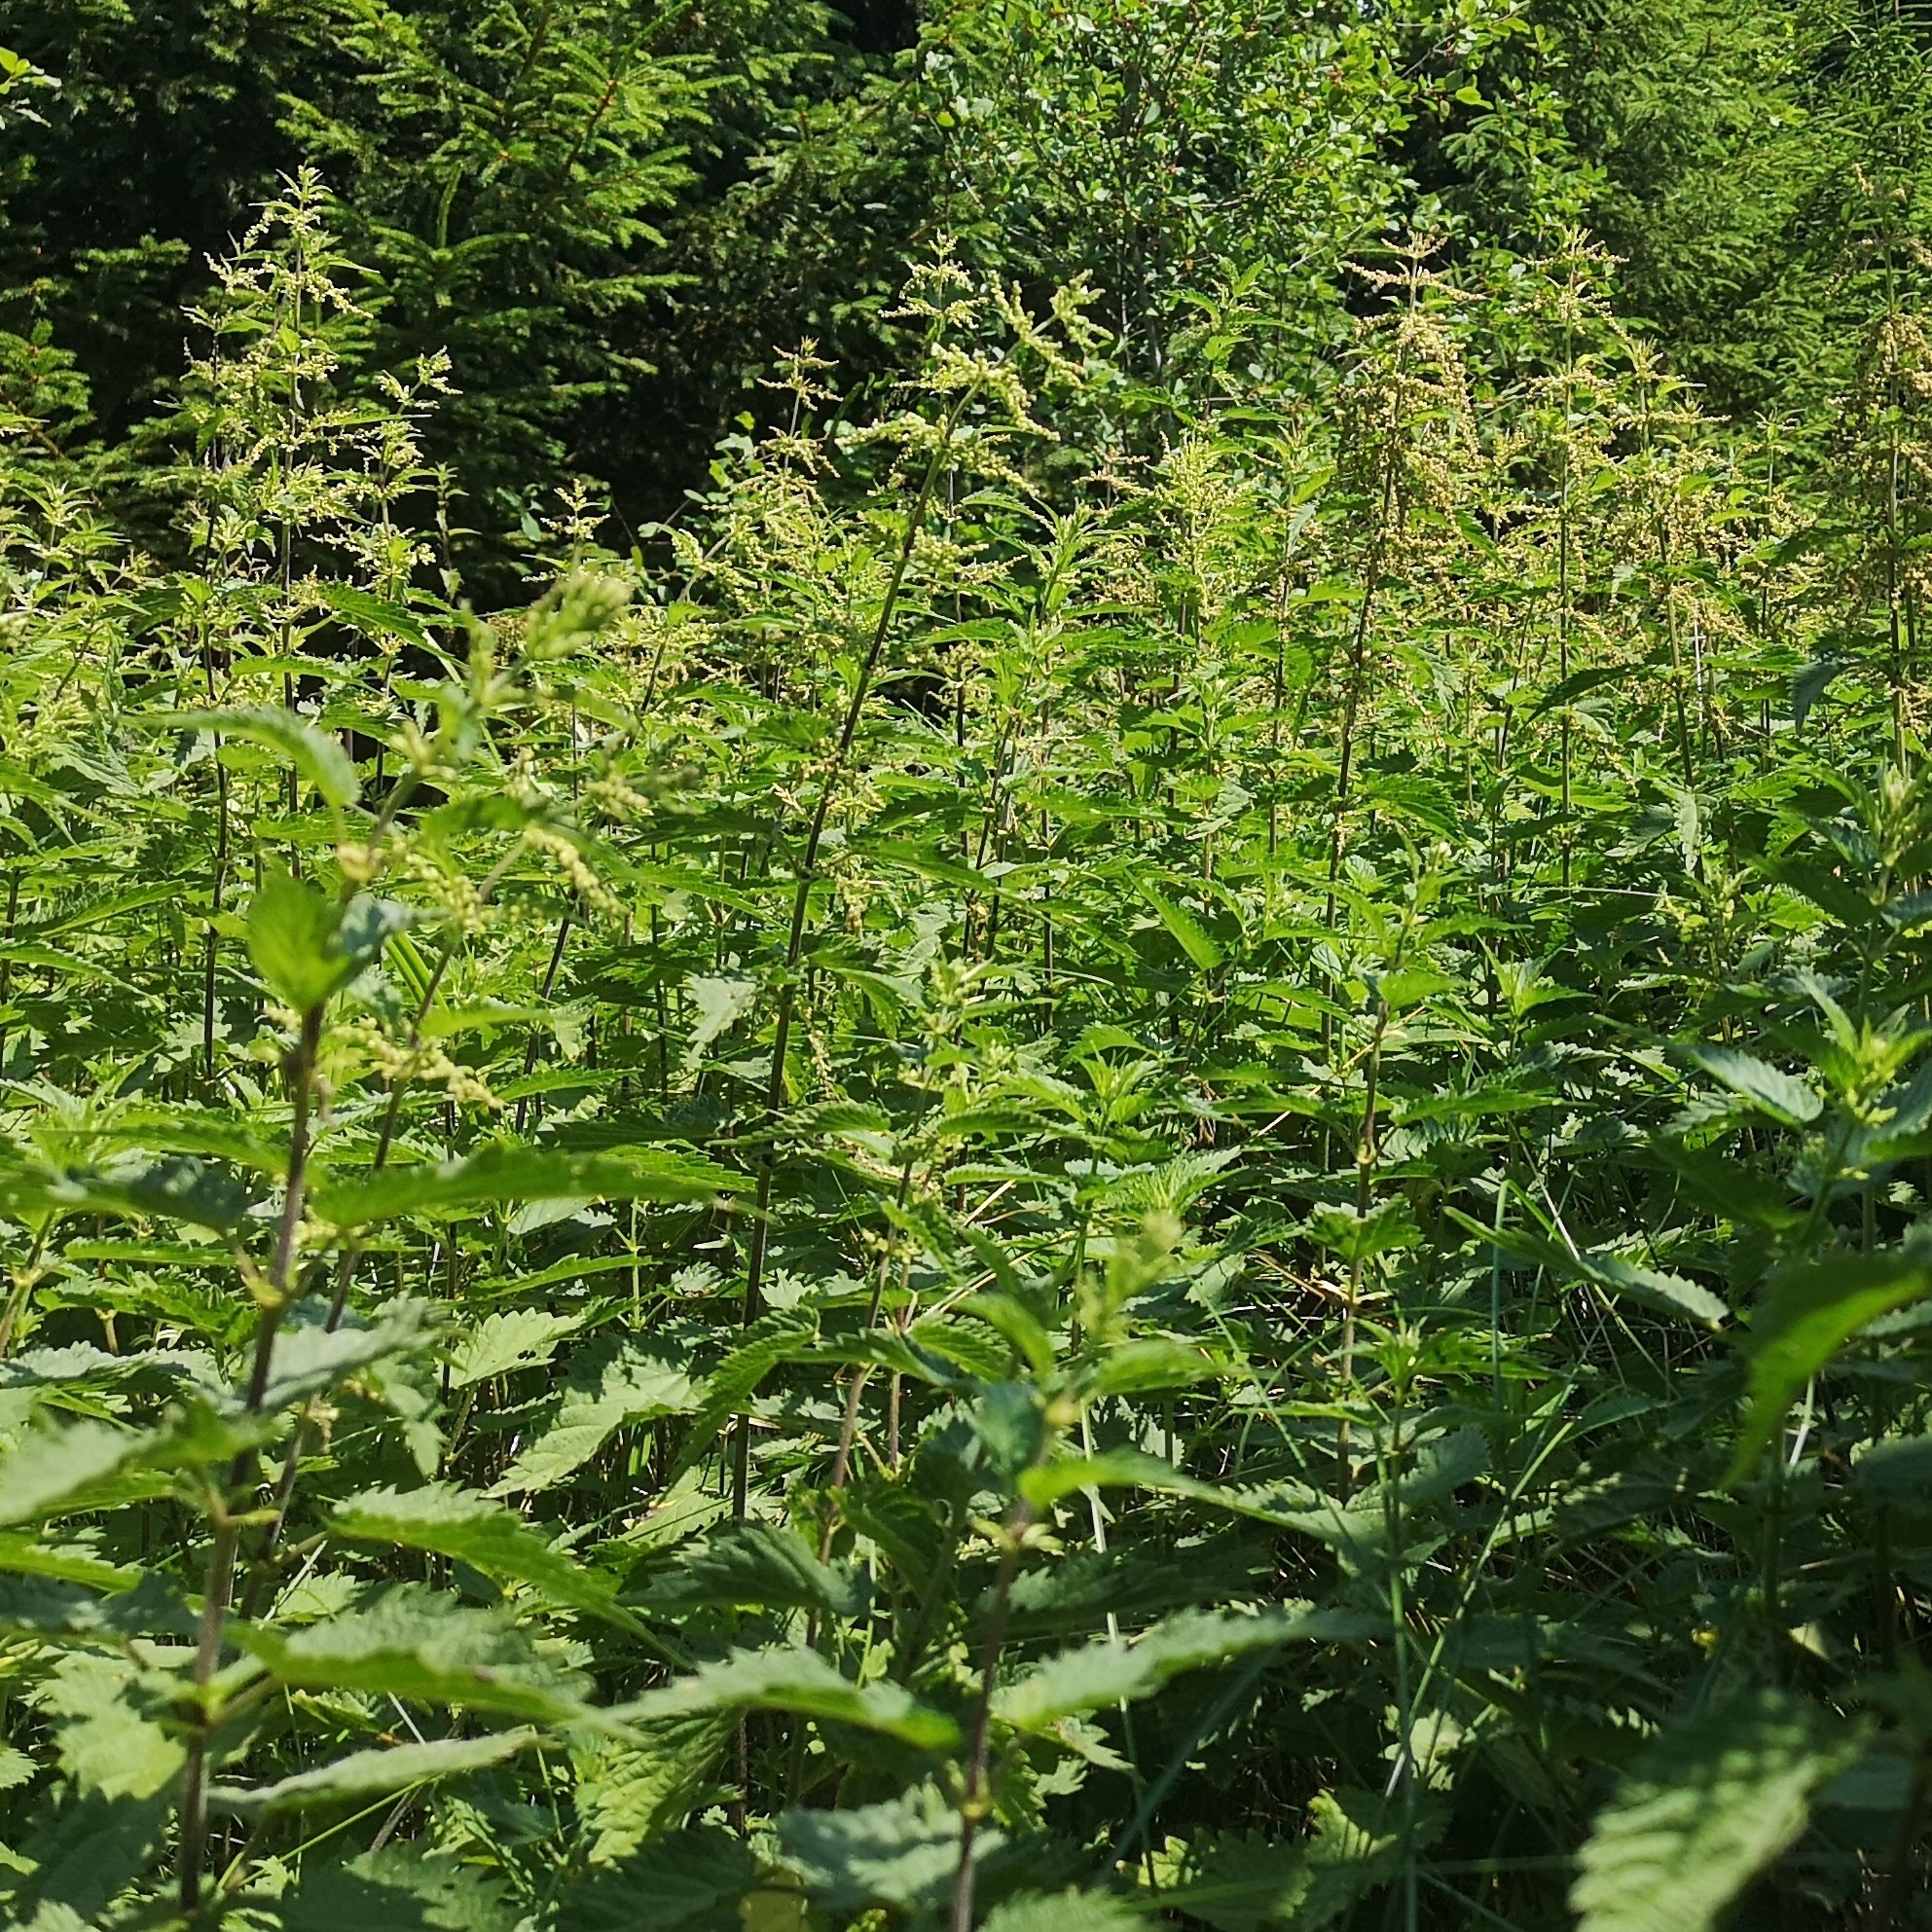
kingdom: Plantae
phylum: Tracheophyta
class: Magnoliopsida
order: Rosales
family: Urticaceae
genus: Urtica
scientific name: Urtica dioica
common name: Common nettle
